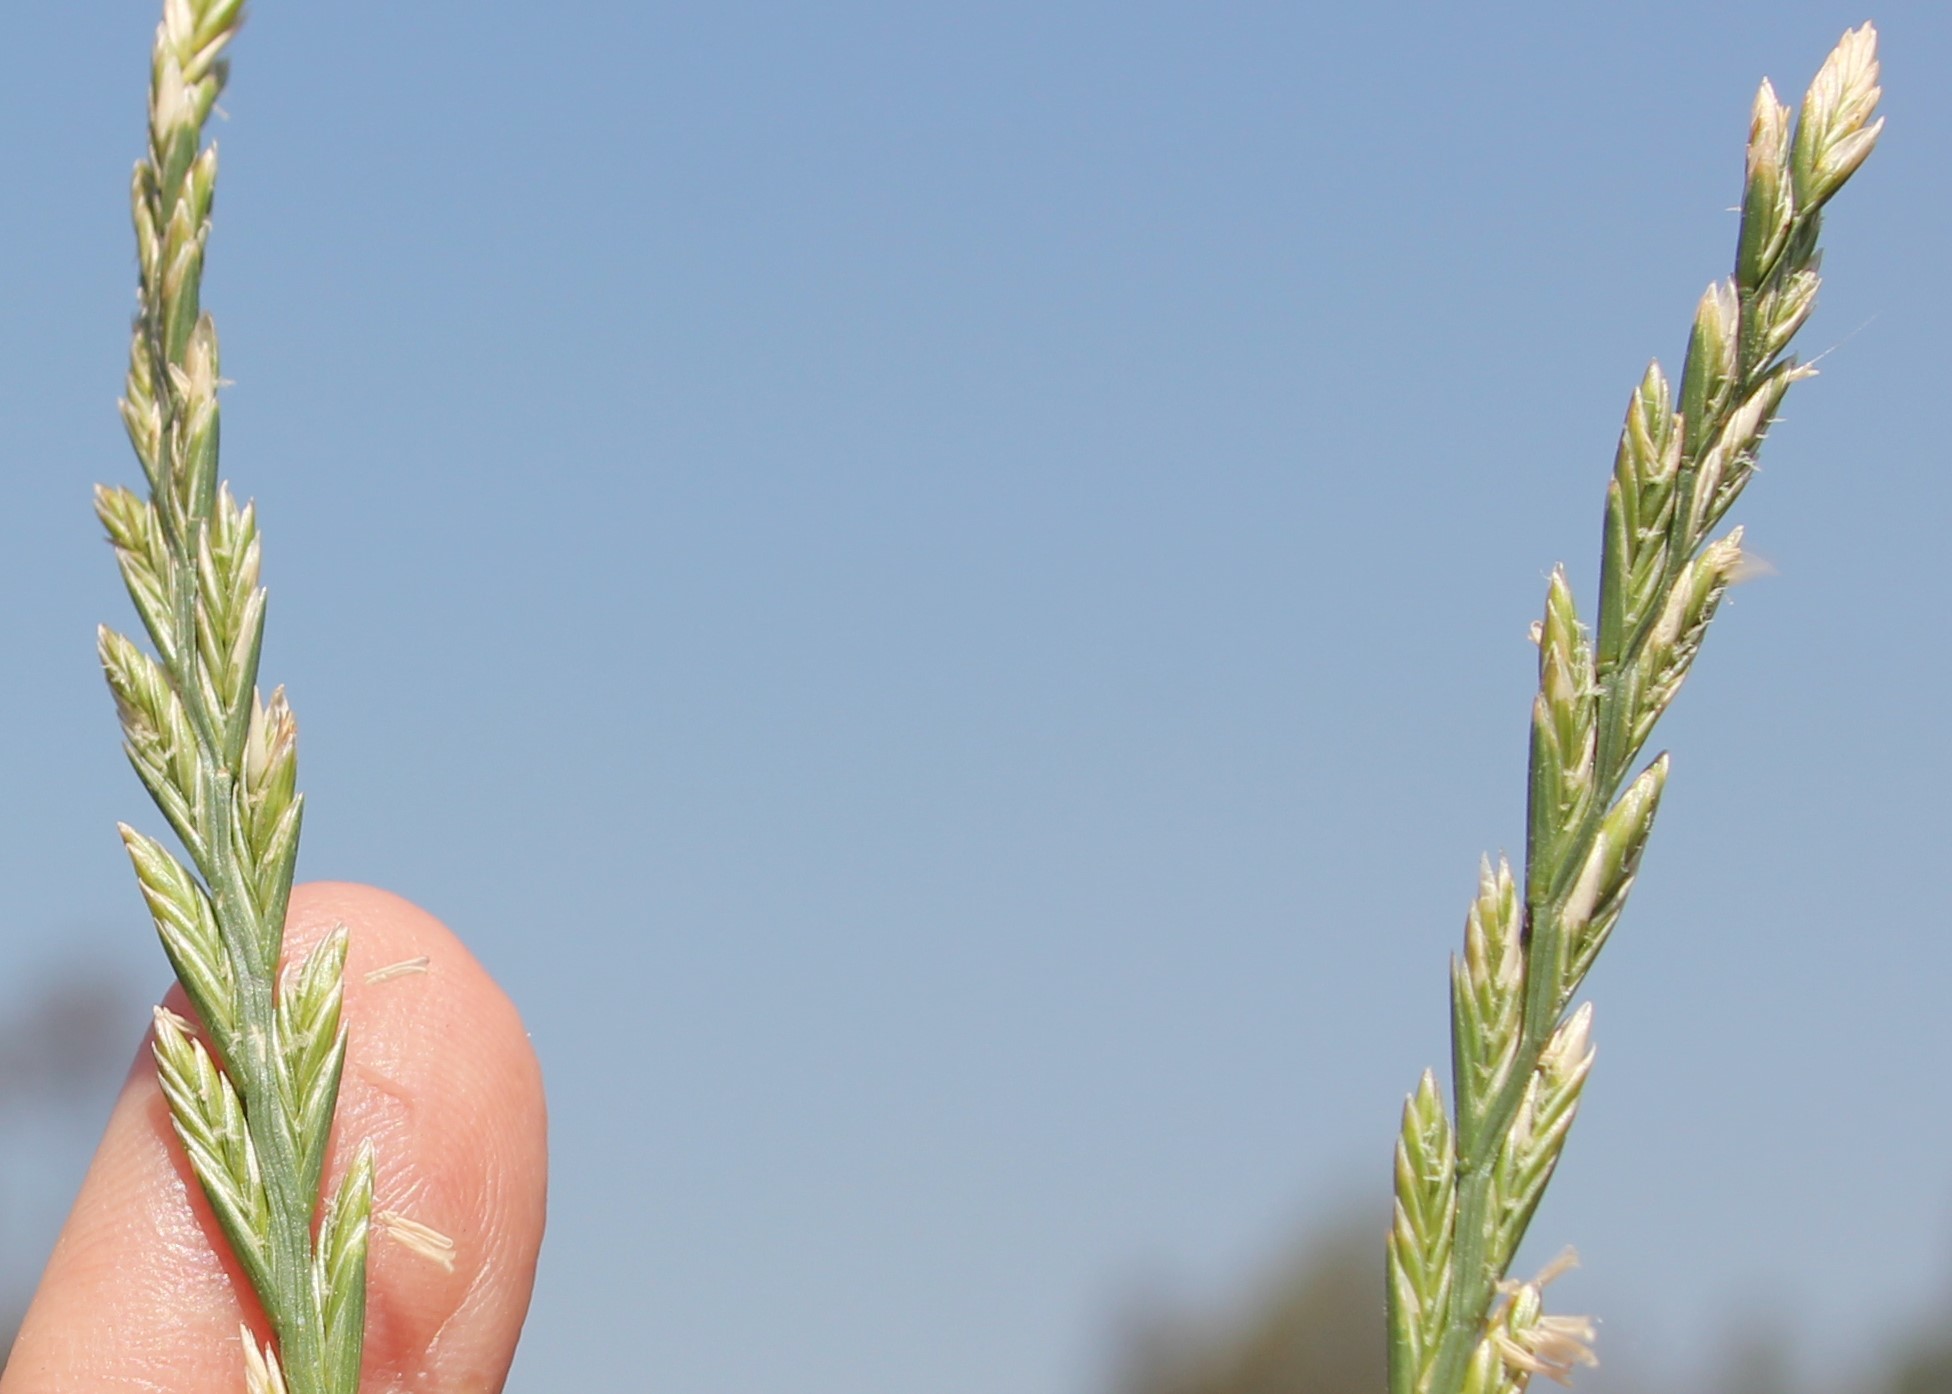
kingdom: Plantae
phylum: Tracheophyta
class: Liliopsida
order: Poales
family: Poaceae
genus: Lolium
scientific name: Lolium perenne
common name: Perennial ryegrass
